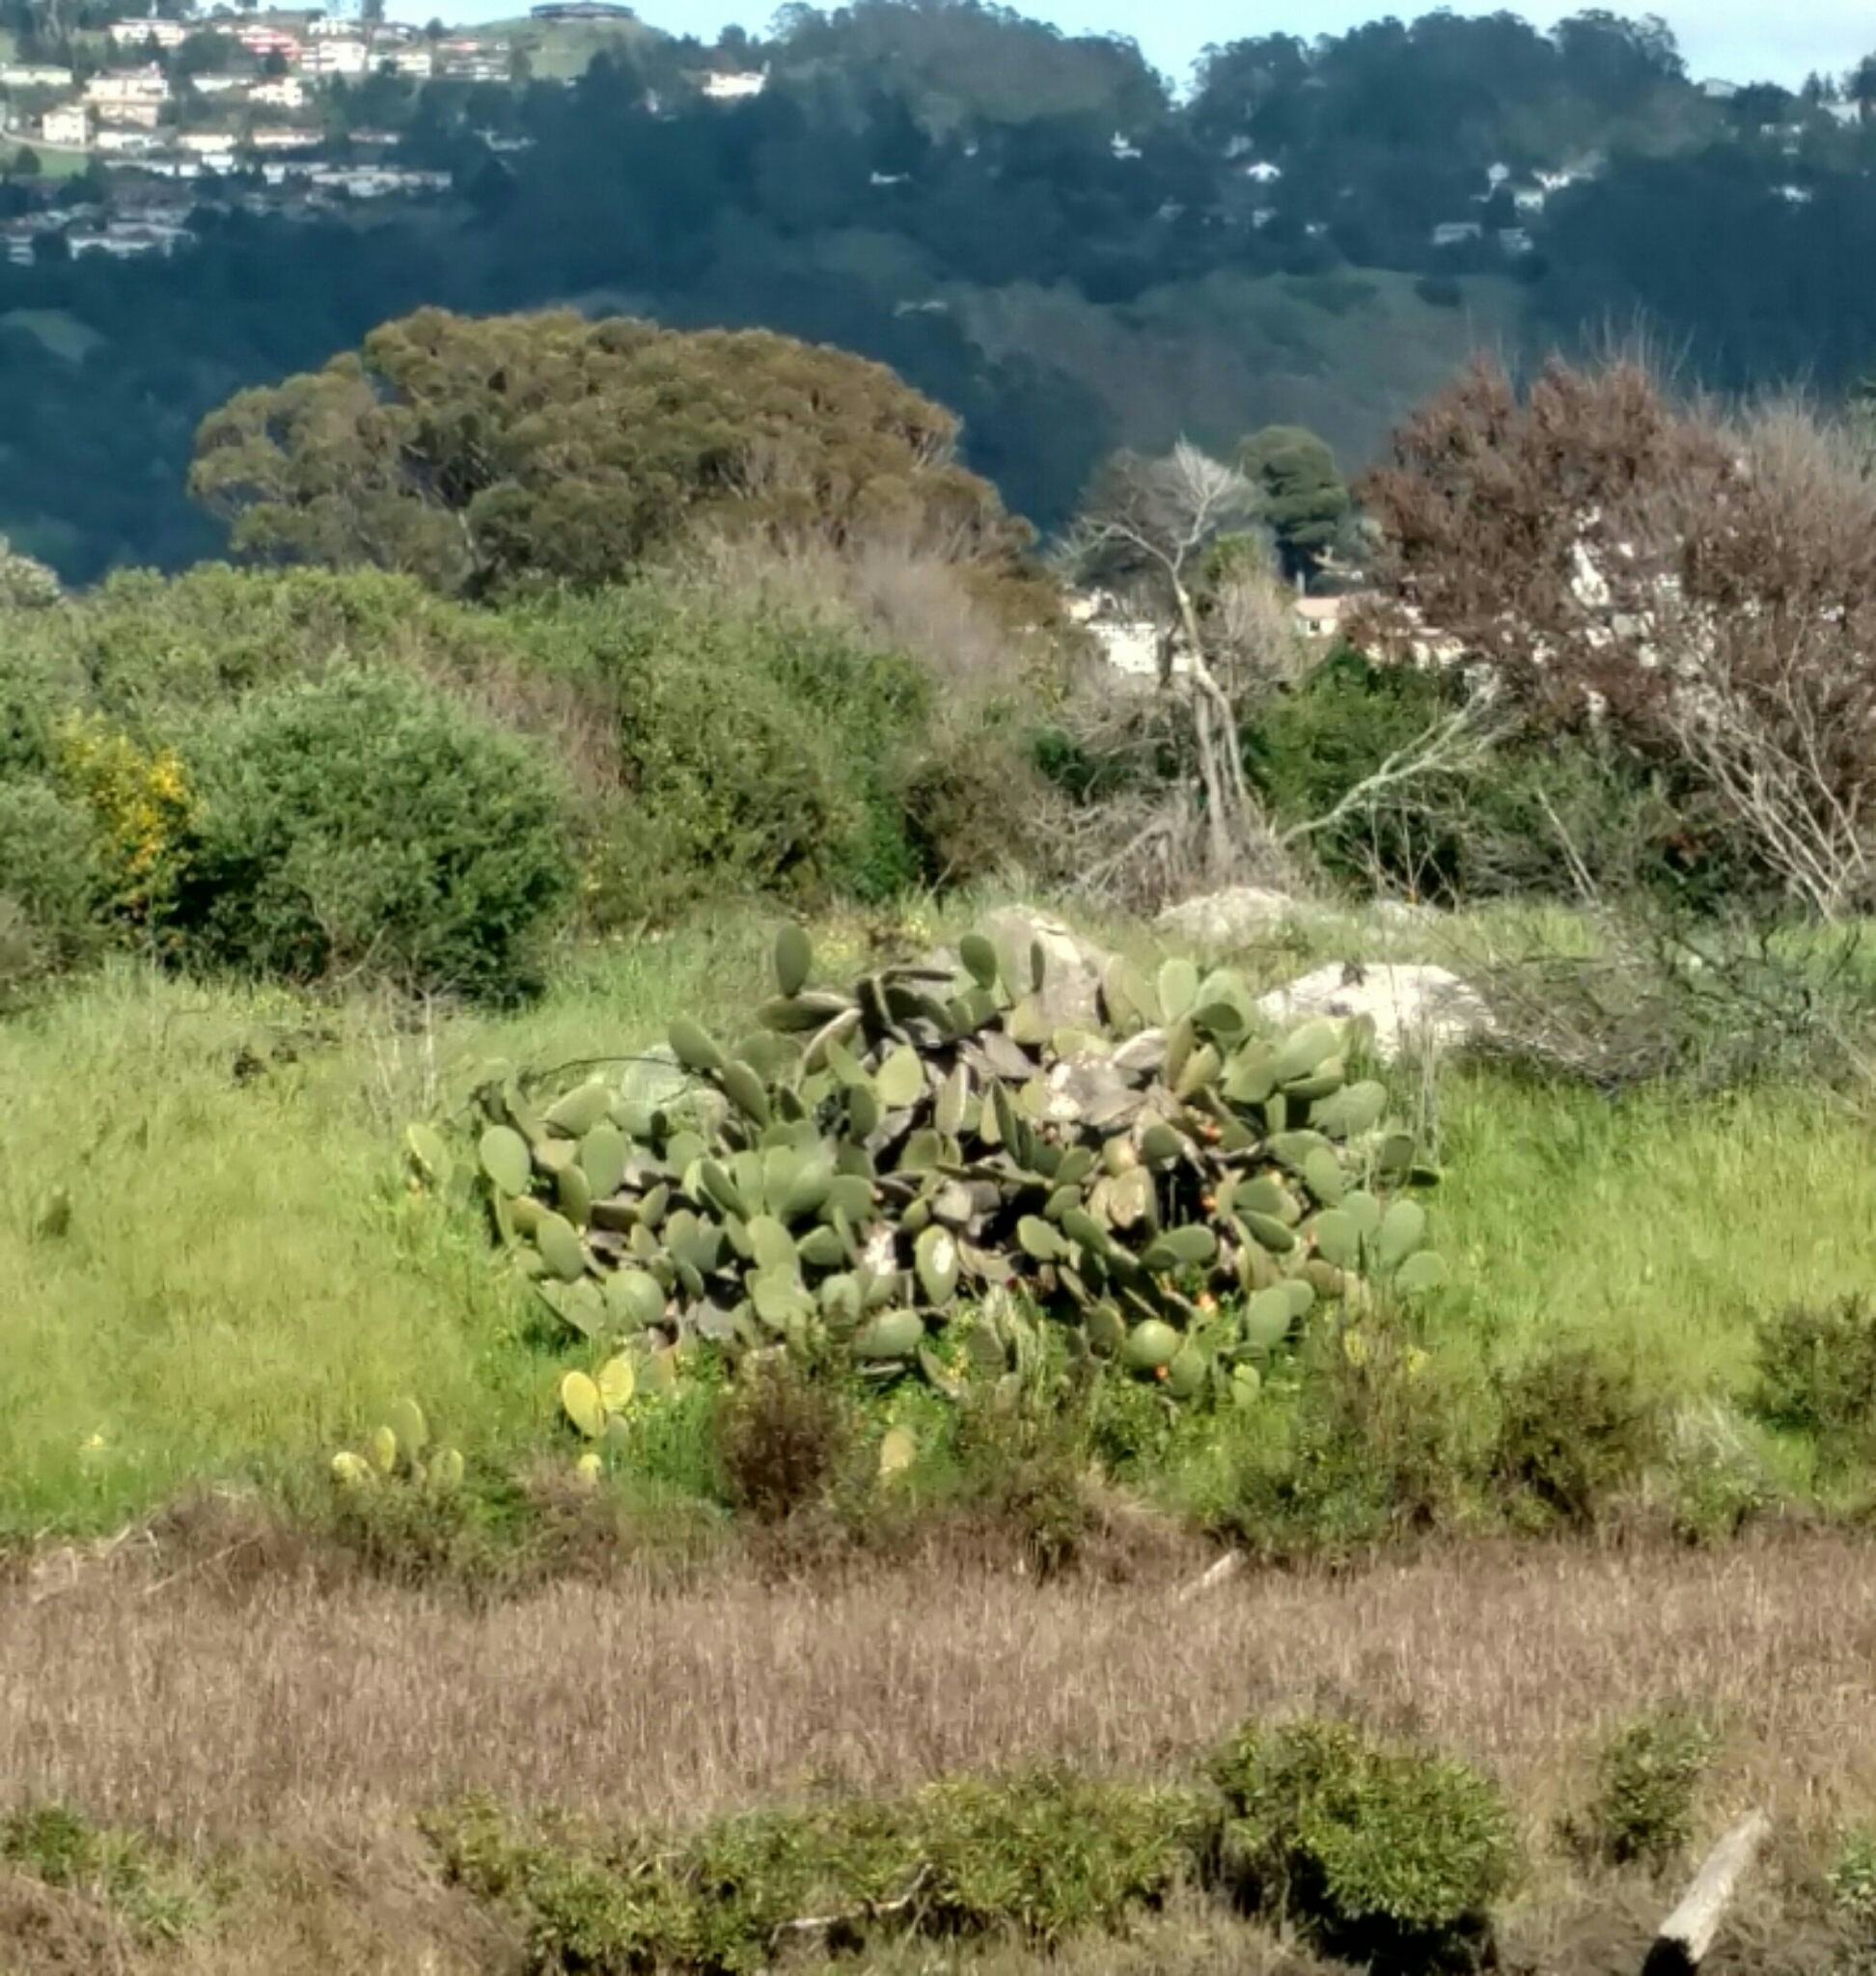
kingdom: Plantae
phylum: Tracheophyta
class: Magnoliopsida
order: Caryophyllales
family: Cactaceae
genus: Opuntia
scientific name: Opuntia ficus-indica
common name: Barbary fig
